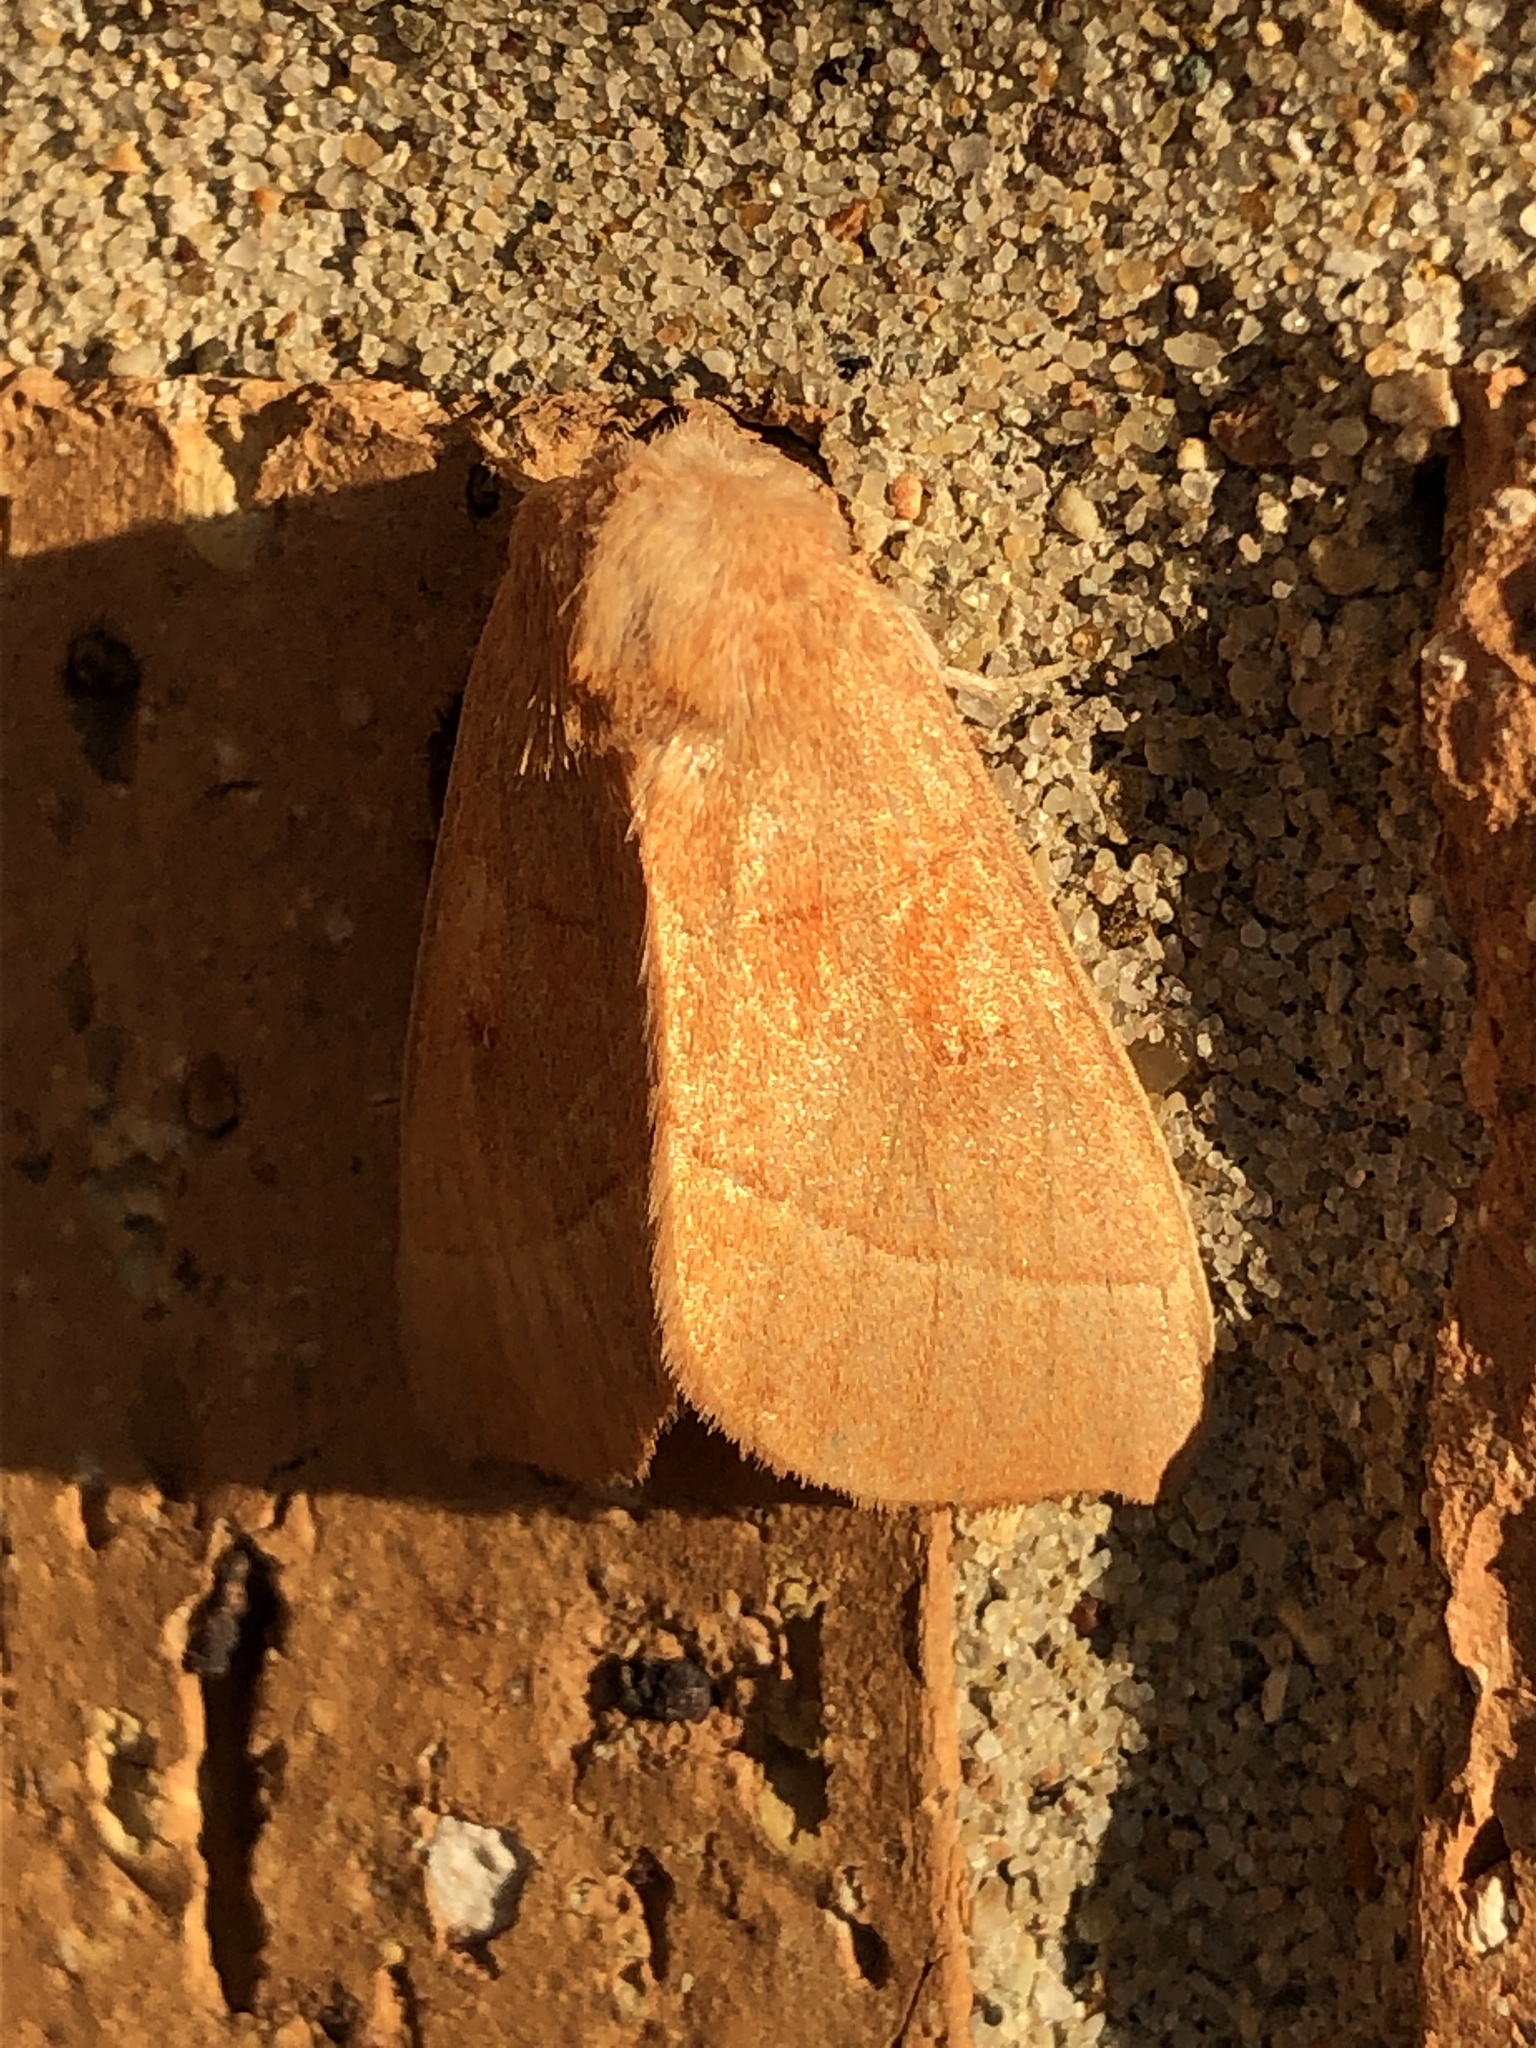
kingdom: Animalia
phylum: Arthropoda
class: Insecta
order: Lepidoptera
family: Notodontidae
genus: Nadata
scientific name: Nadata gibbosa
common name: White-dotted prominent
